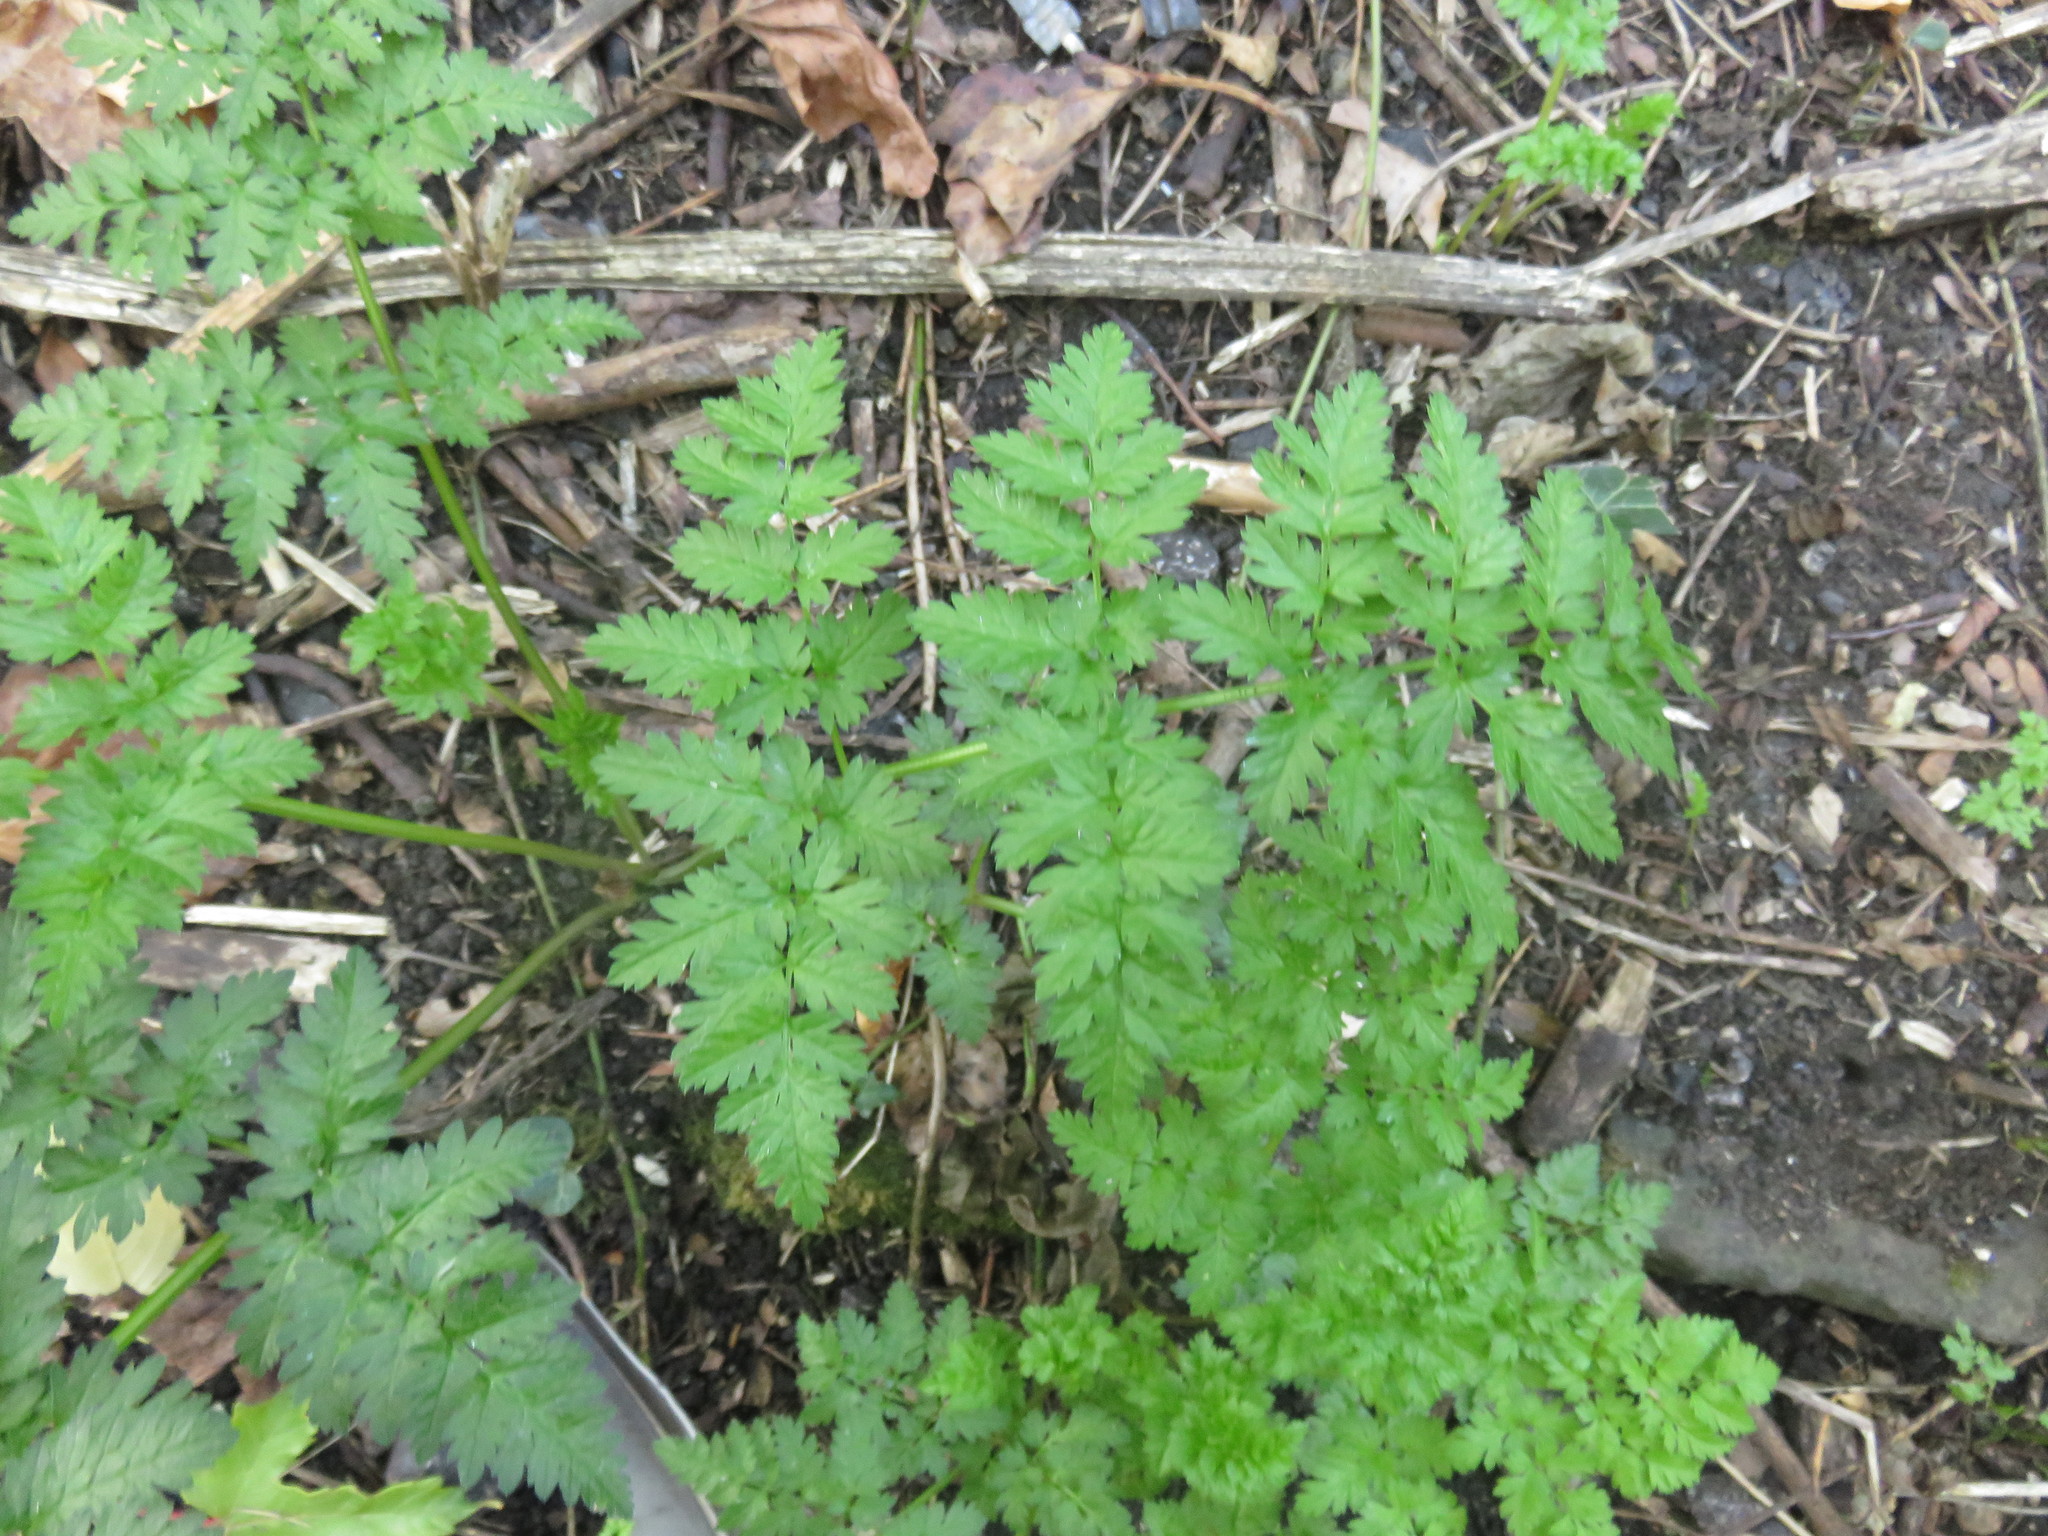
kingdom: Plantae
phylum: Tracheophyta
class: Magnoliopsida
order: Apiales
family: Apiaceae
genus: Anthriscus
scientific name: Anthriscus sylvestris
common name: Cow parsley
